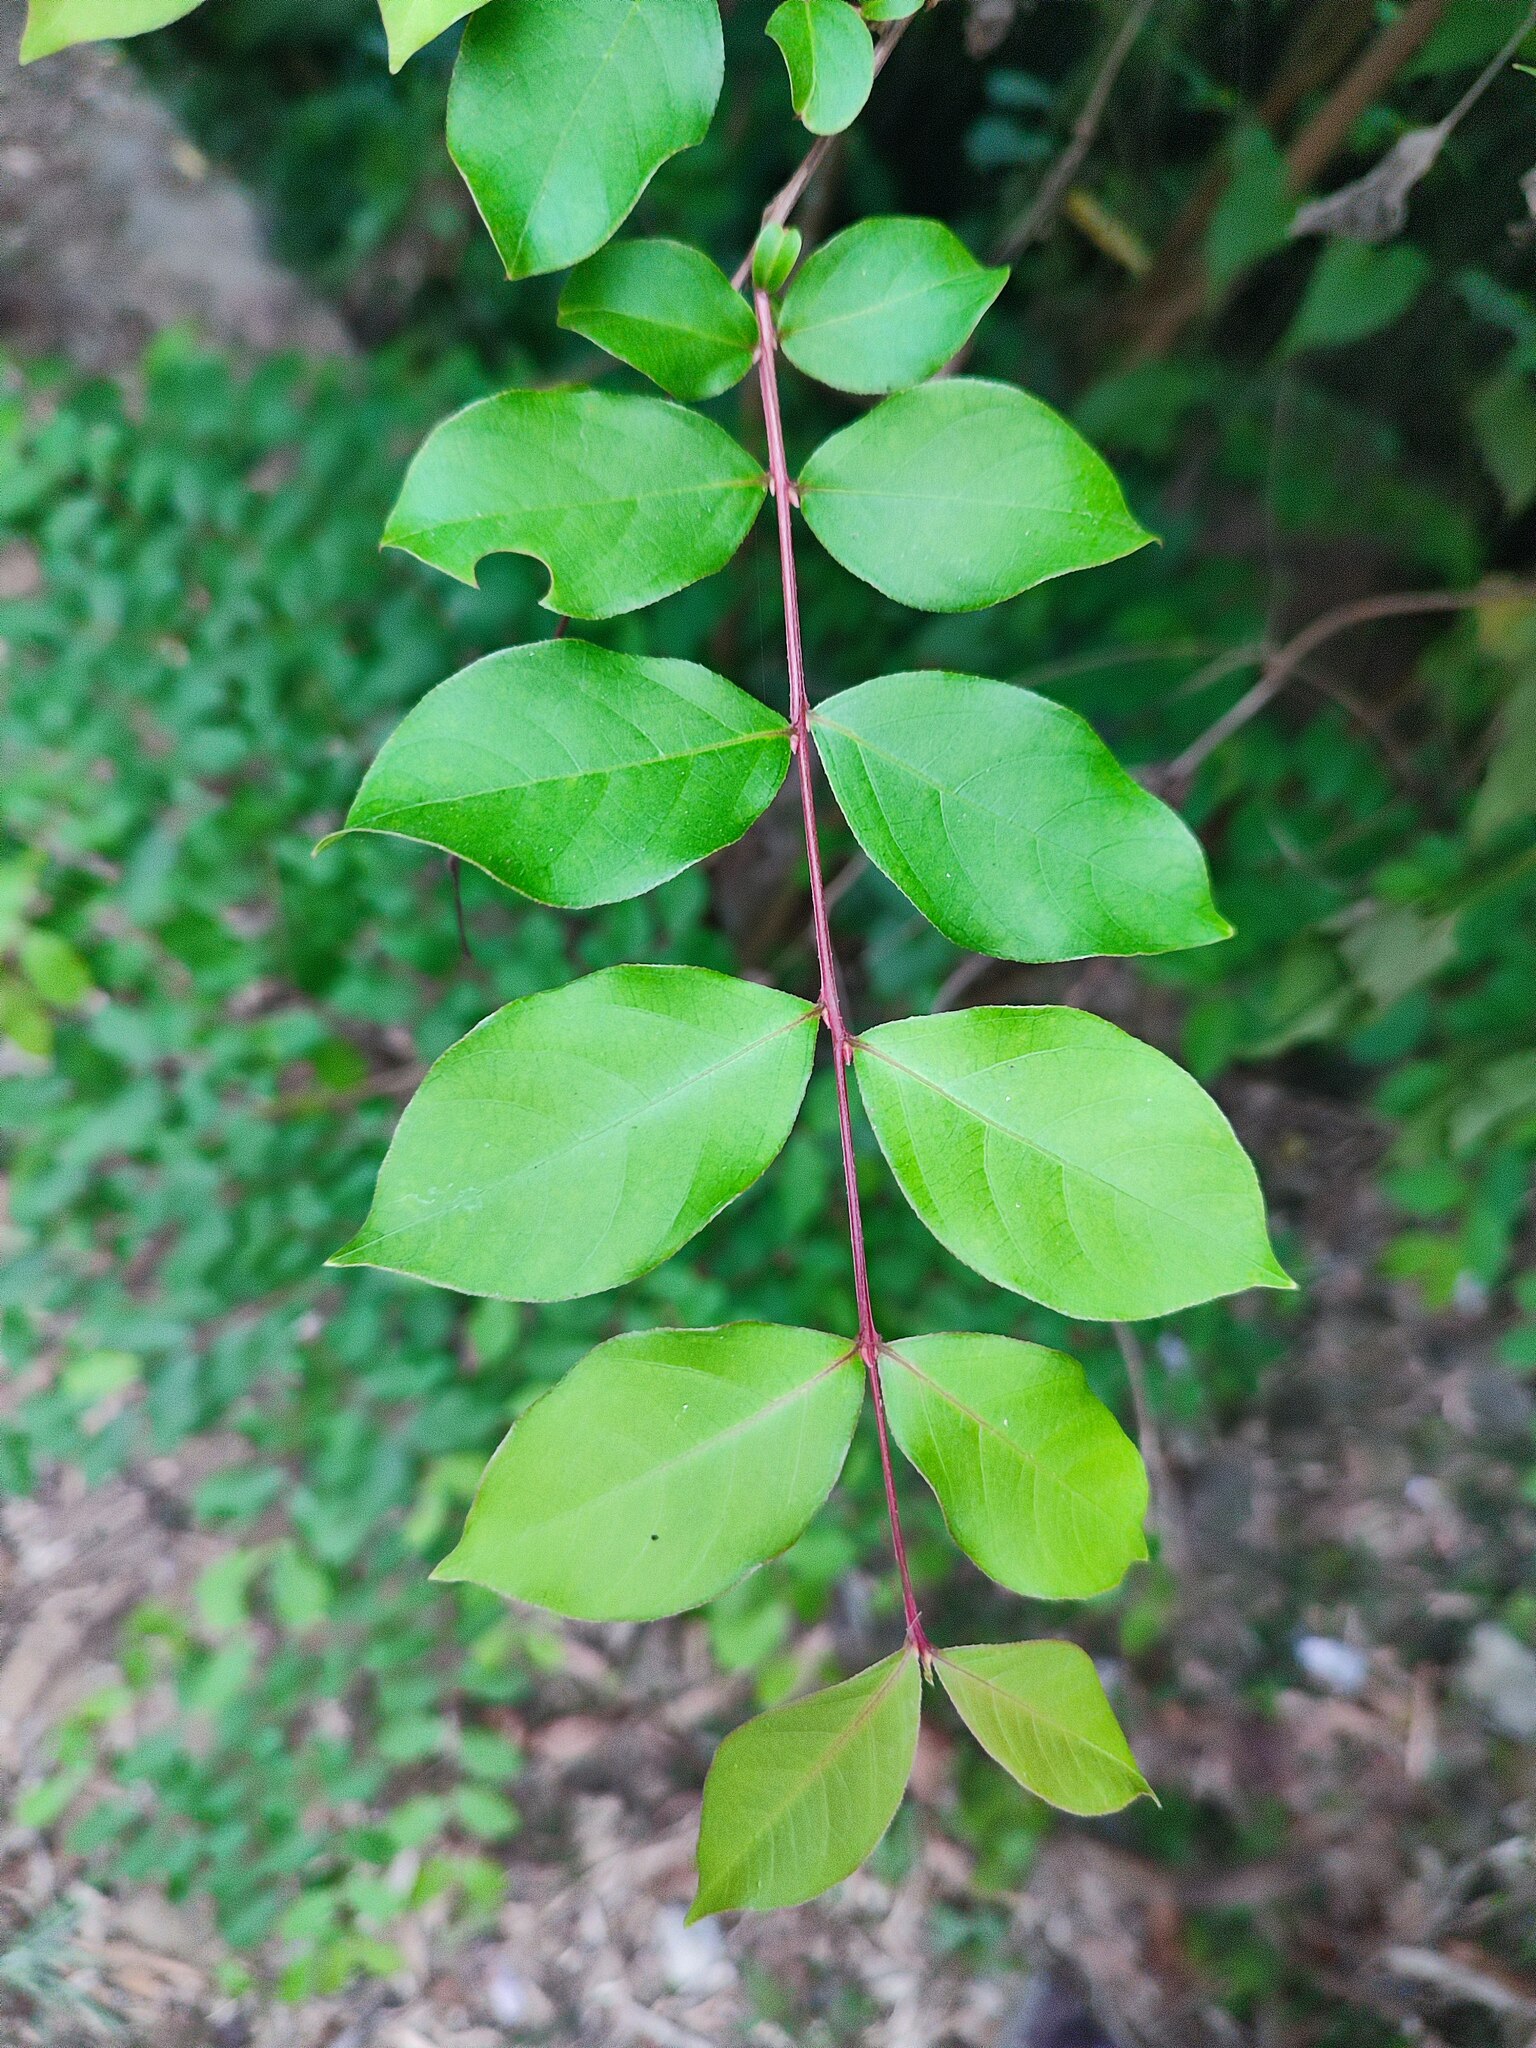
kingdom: Plantae
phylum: Tracheophyta
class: Magnoliopsida
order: Myrtales
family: Lythraceae
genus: Lagerstroemia
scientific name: Lagerstroemia subcostata
